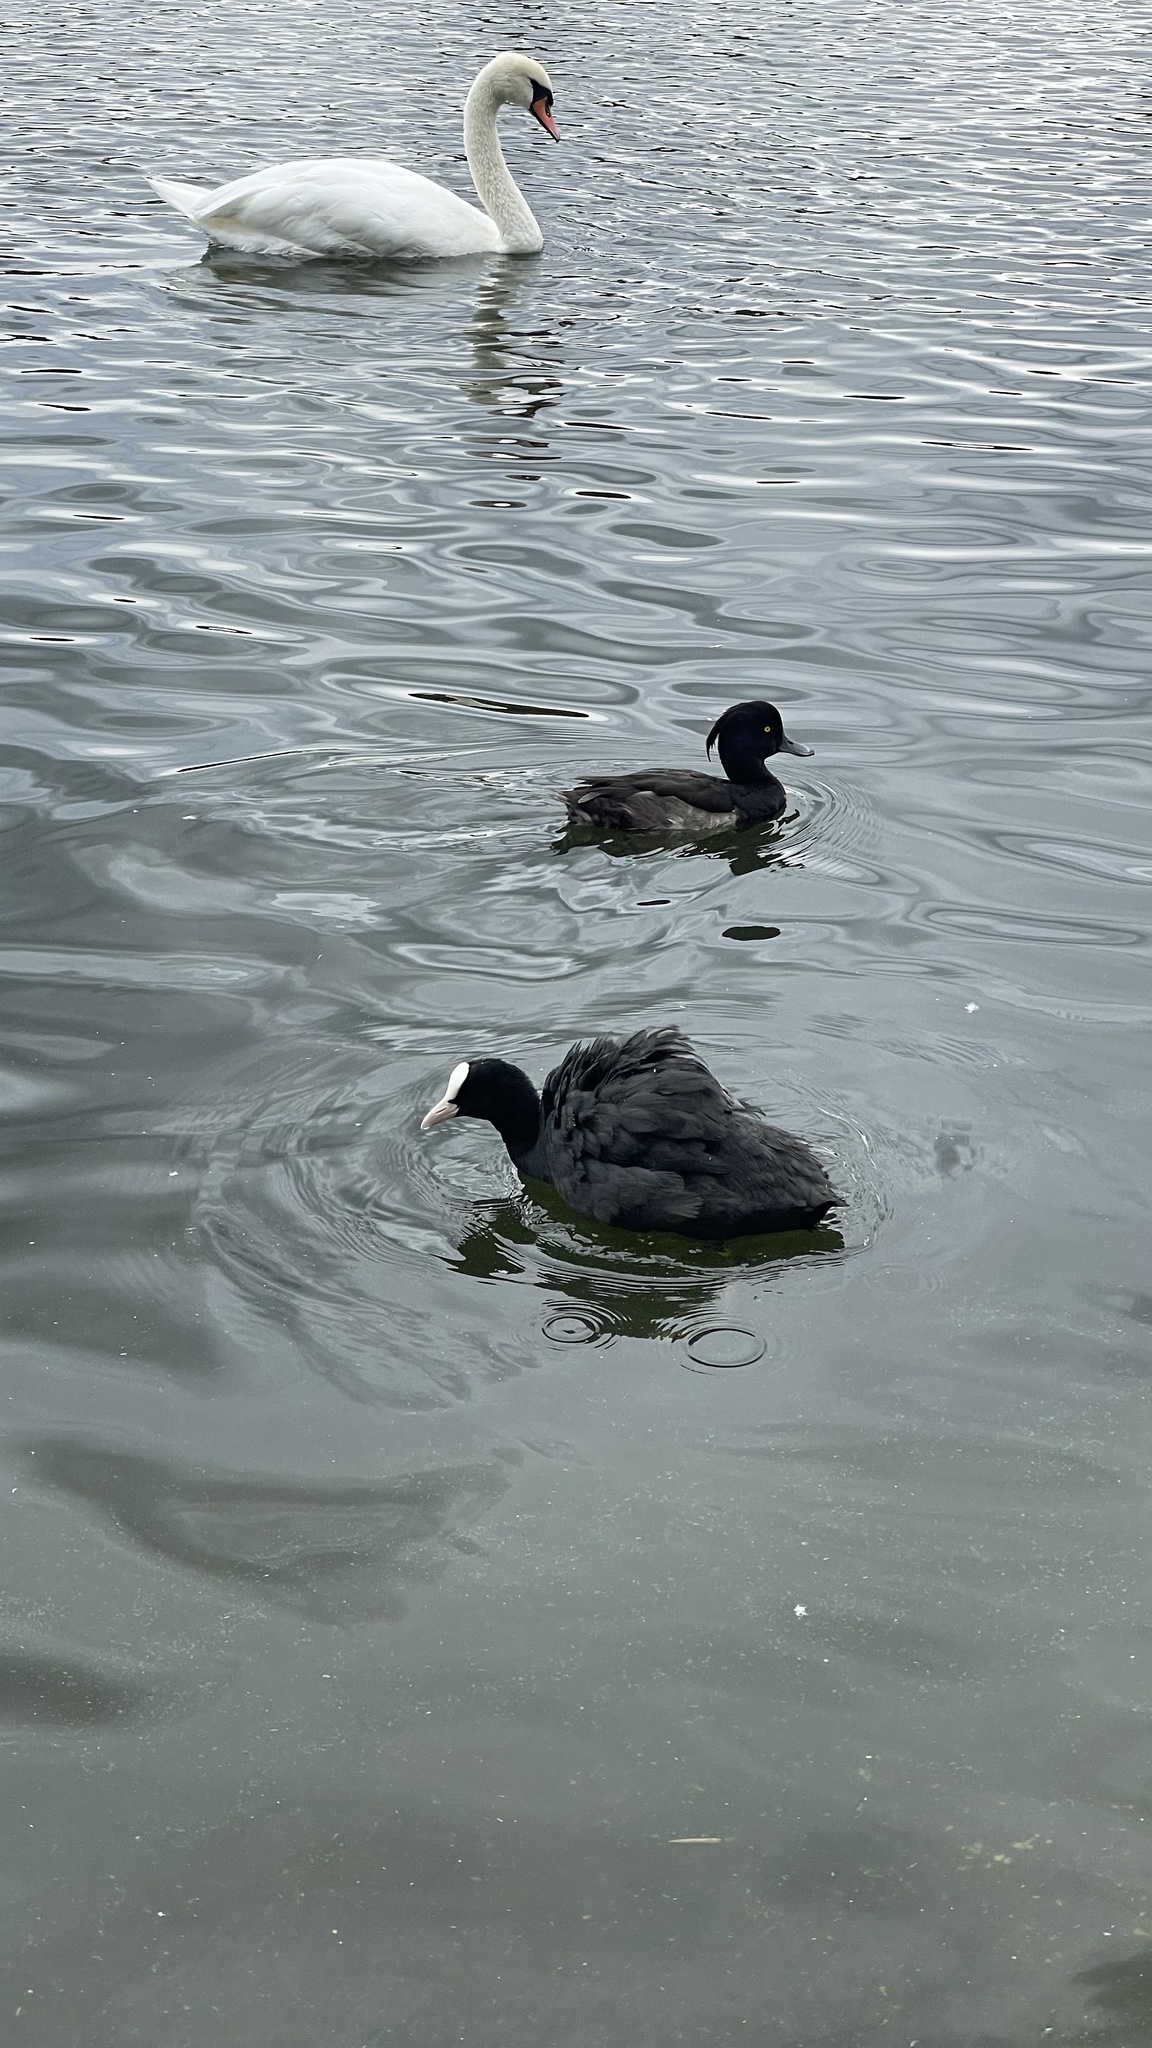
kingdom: Animalia
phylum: Chordata
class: Aves
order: Gruiformes
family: Rallidae
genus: Fulica
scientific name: Fulica atra
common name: Eurasian coot
